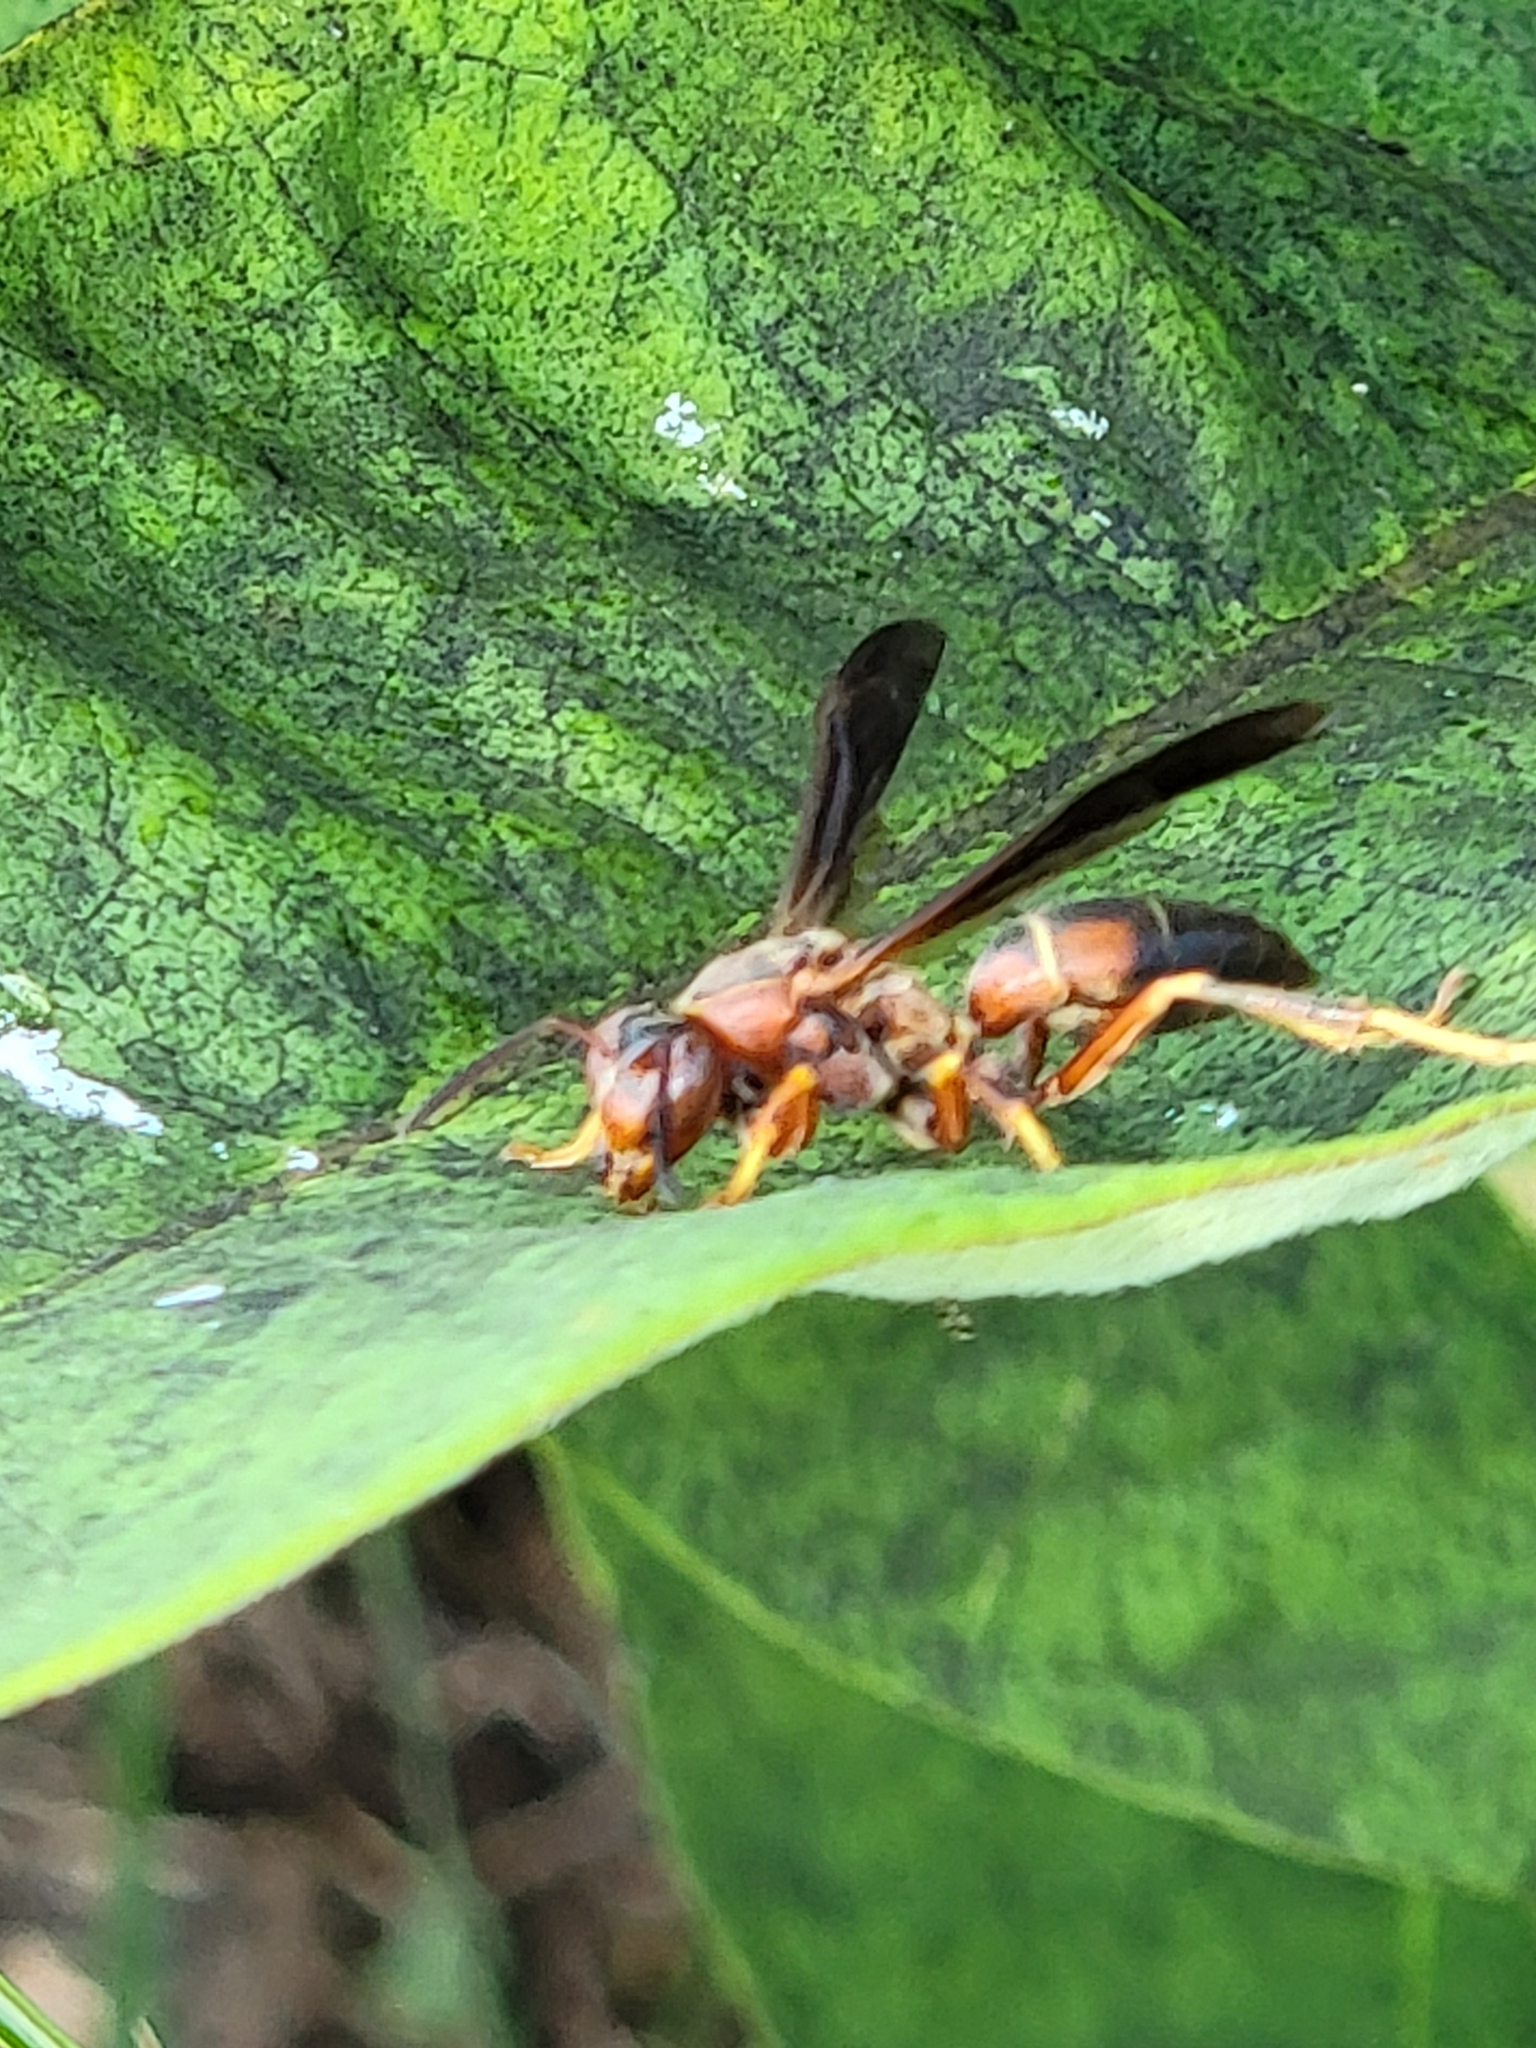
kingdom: Animalia
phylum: Arthropoda
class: Insecta
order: Hymenoptera
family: Eumenidae
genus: Polistes
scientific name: Polistes fuscatus
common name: Dark paper wasp
